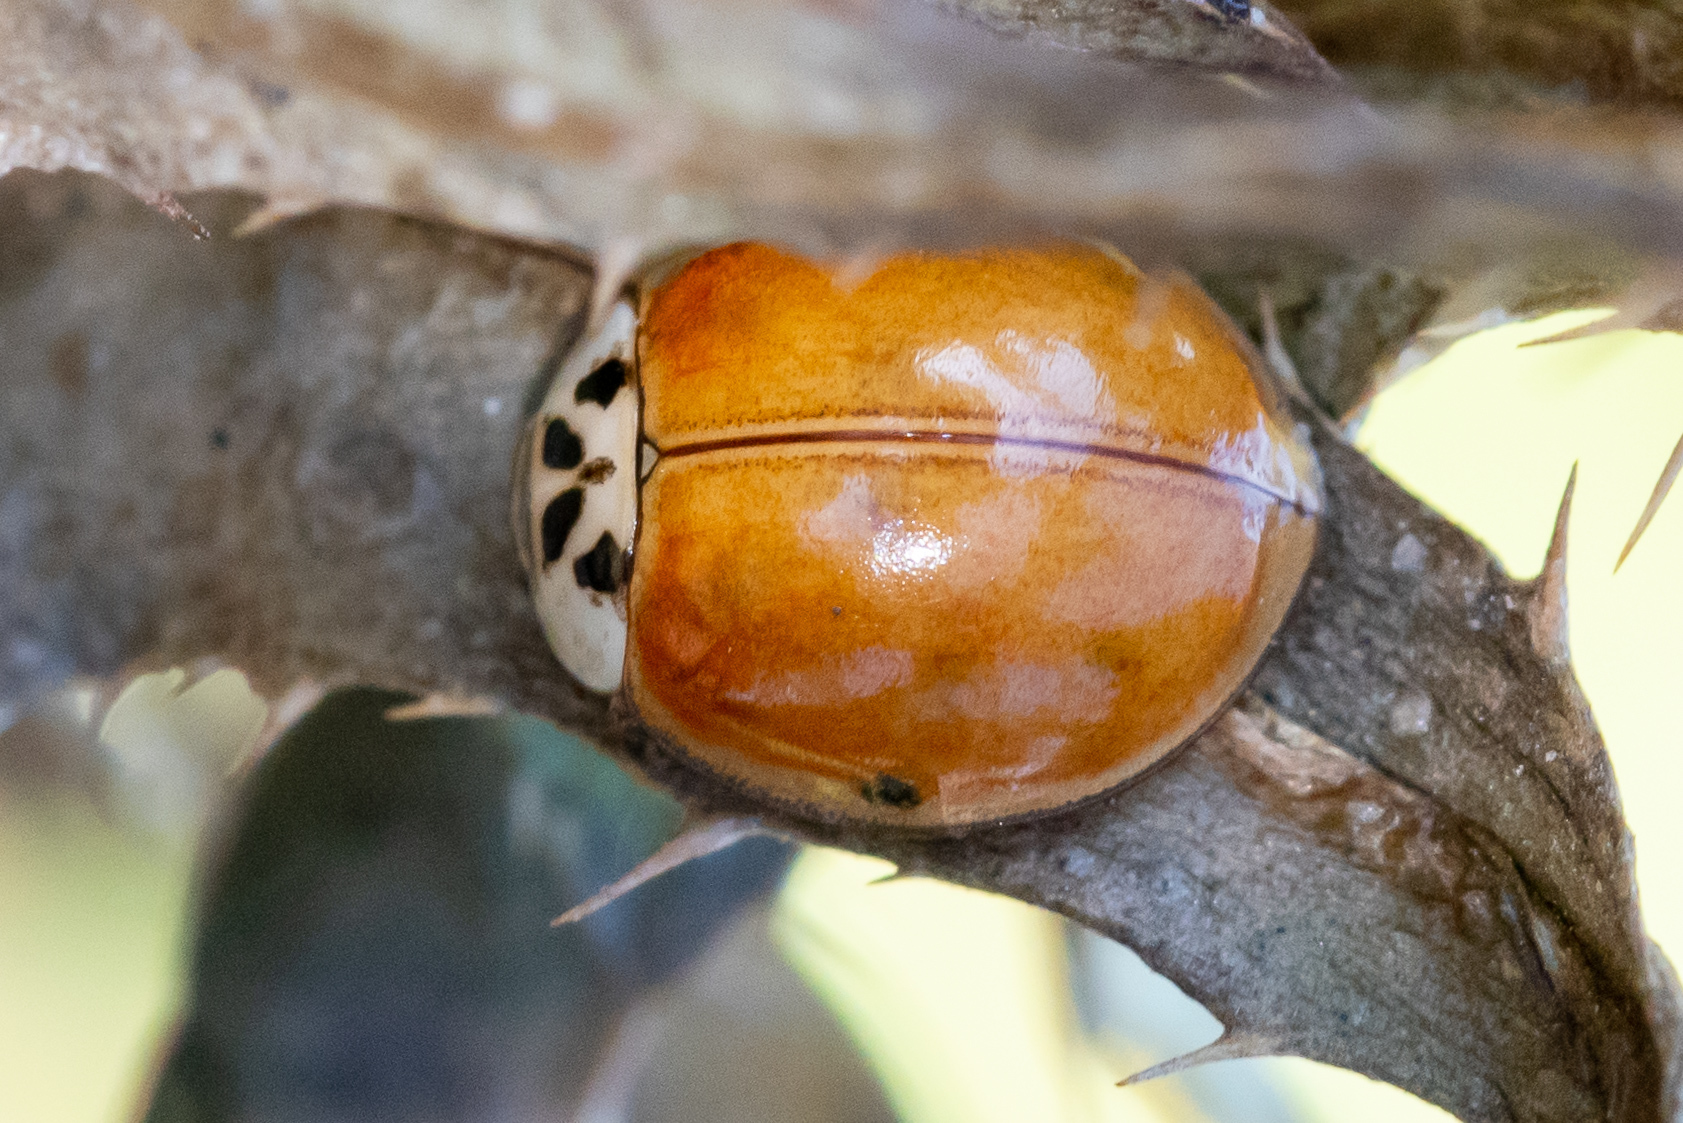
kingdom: Animalia
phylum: Arthropoda
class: Insecta
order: Coleoptera
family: Coccinellidae
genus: Harmonia
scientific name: Harmonia axyridis
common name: Harlequin ladybird
